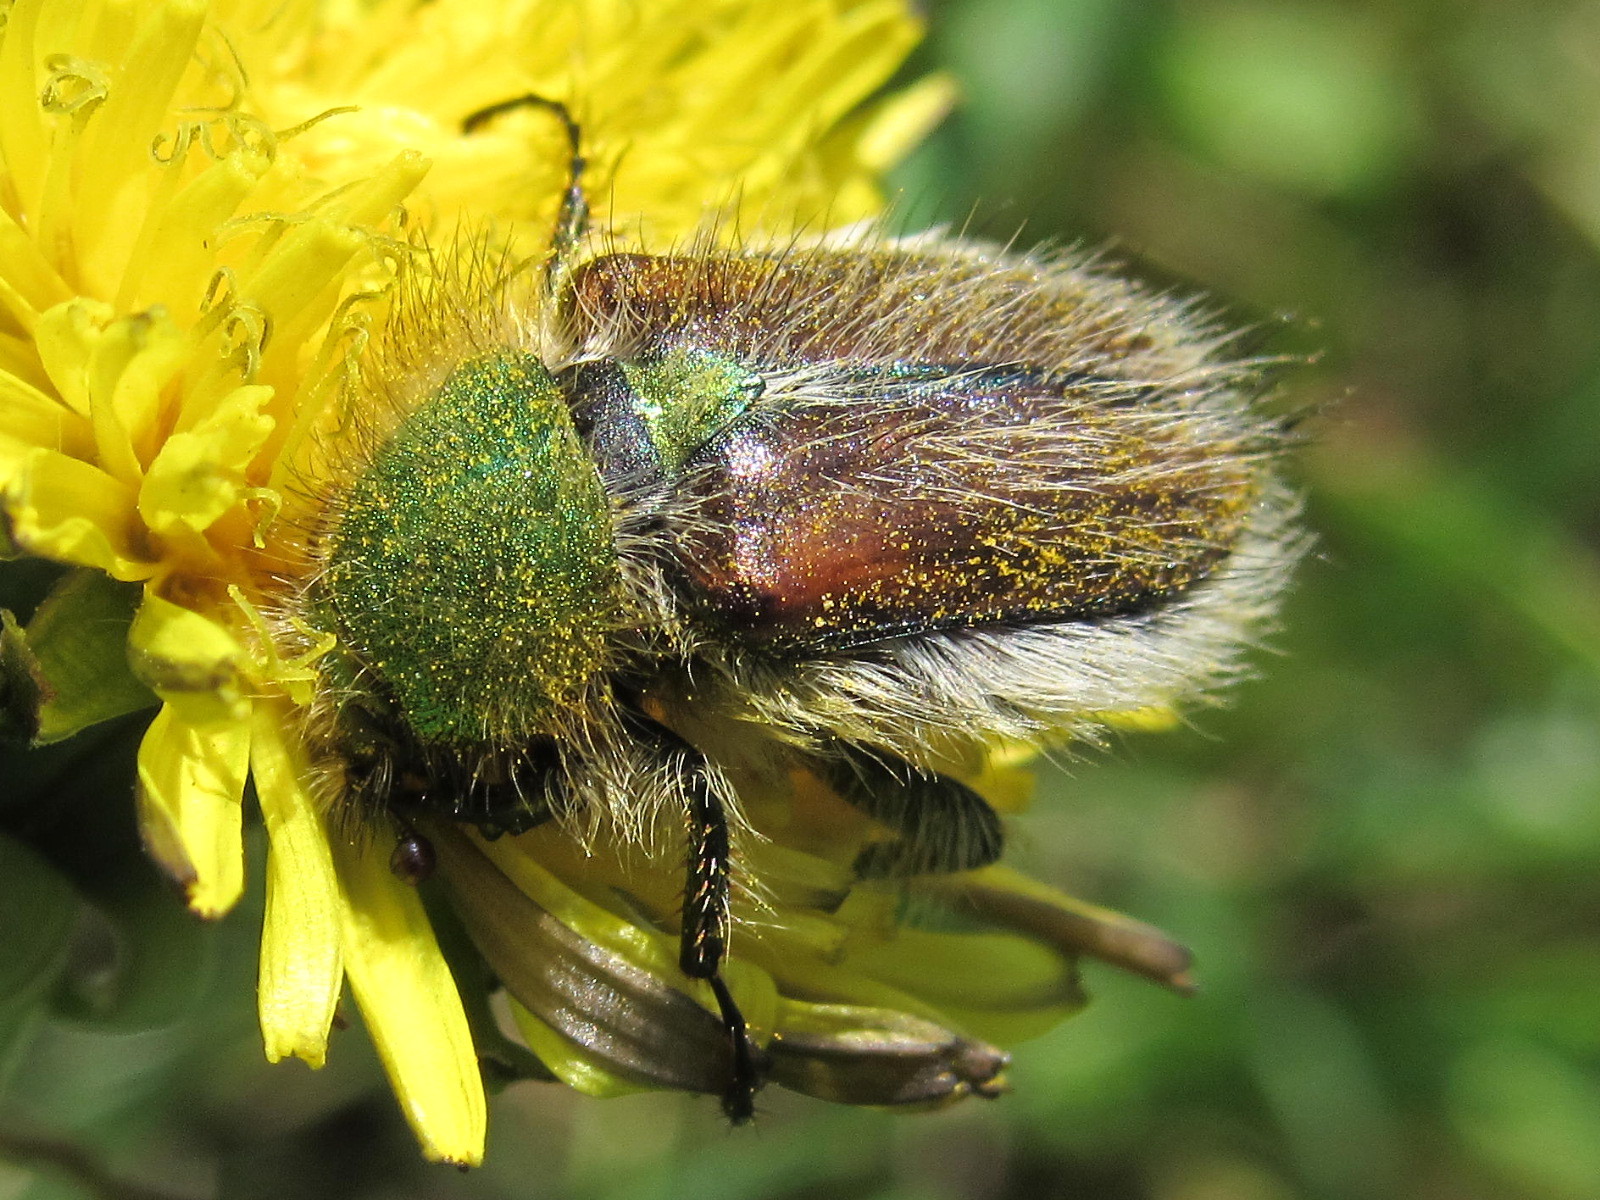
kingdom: Animalia
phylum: Arthropoda
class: Insecta
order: Coleoptera
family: Glaphyridae
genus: Pygopleurus
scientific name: Pygopleurus vulpes
